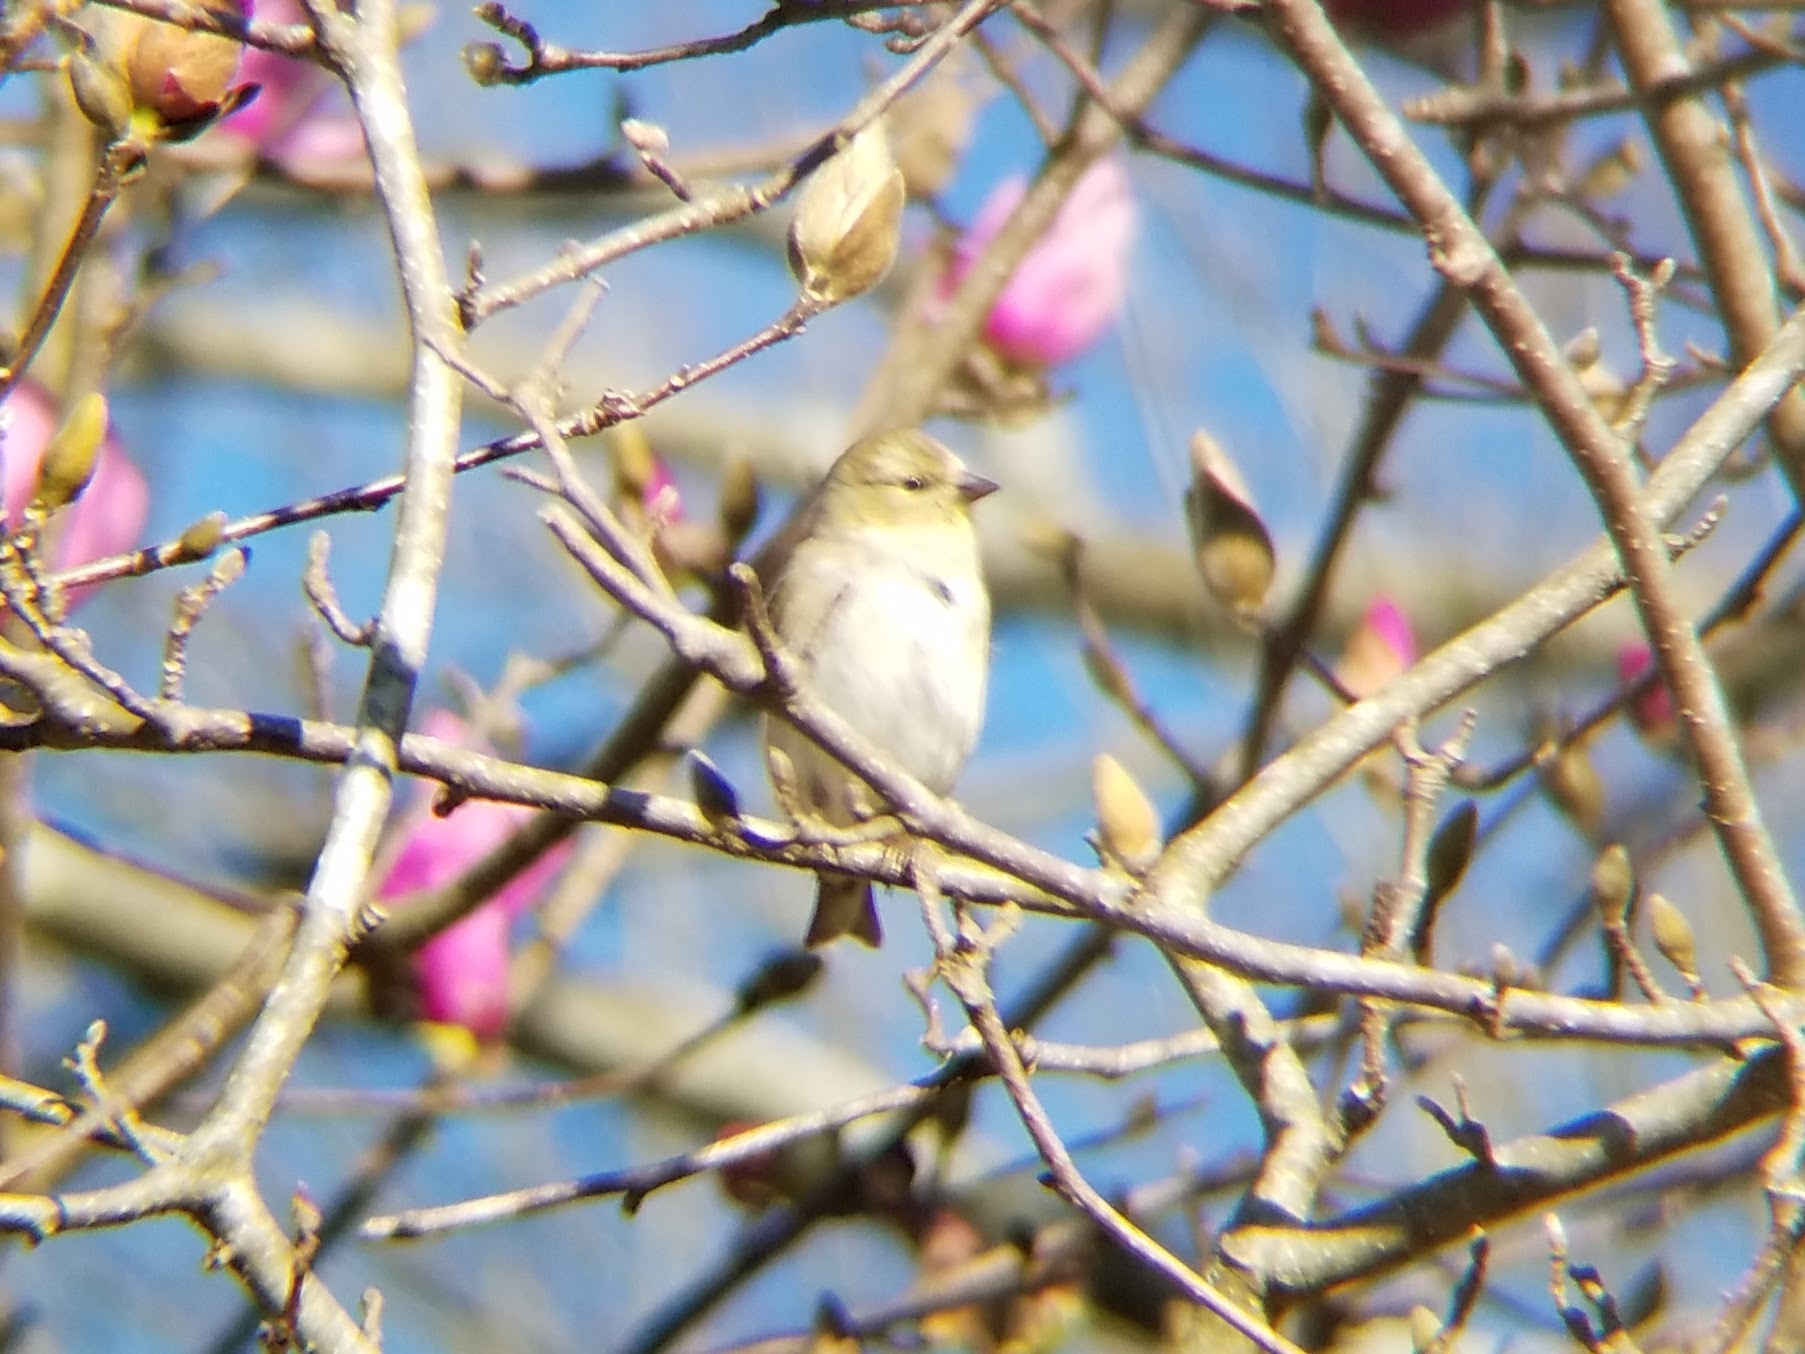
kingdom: Animalia
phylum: Chordata
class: Aves
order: Passeriformes
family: Fringillidae
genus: Spinus
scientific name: Spinus tristis
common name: American goldfinch
